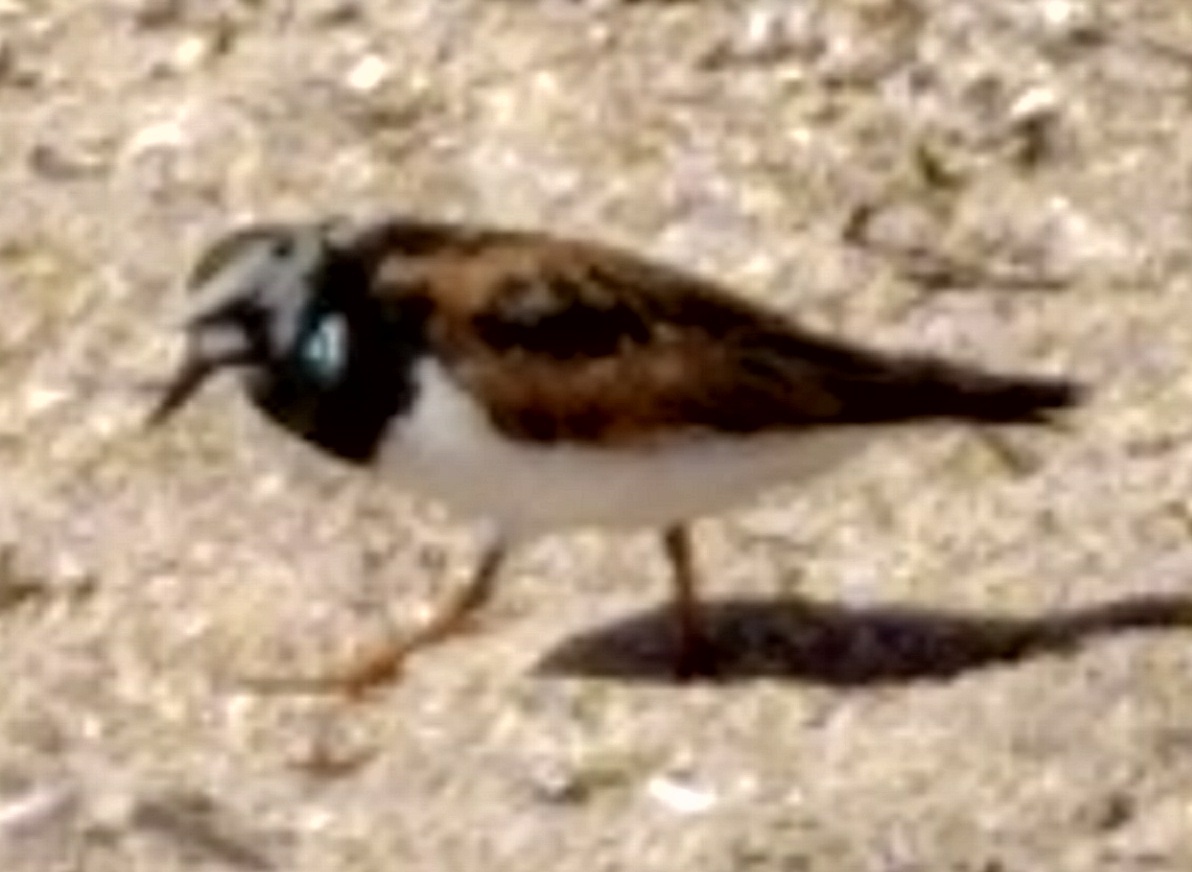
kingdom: Animalia
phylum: Chordata
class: Aves
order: Charadriiformes
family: Scolopacidae
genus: Arenaria
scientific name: Arenaria interpres
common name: Ruddy turnstone
